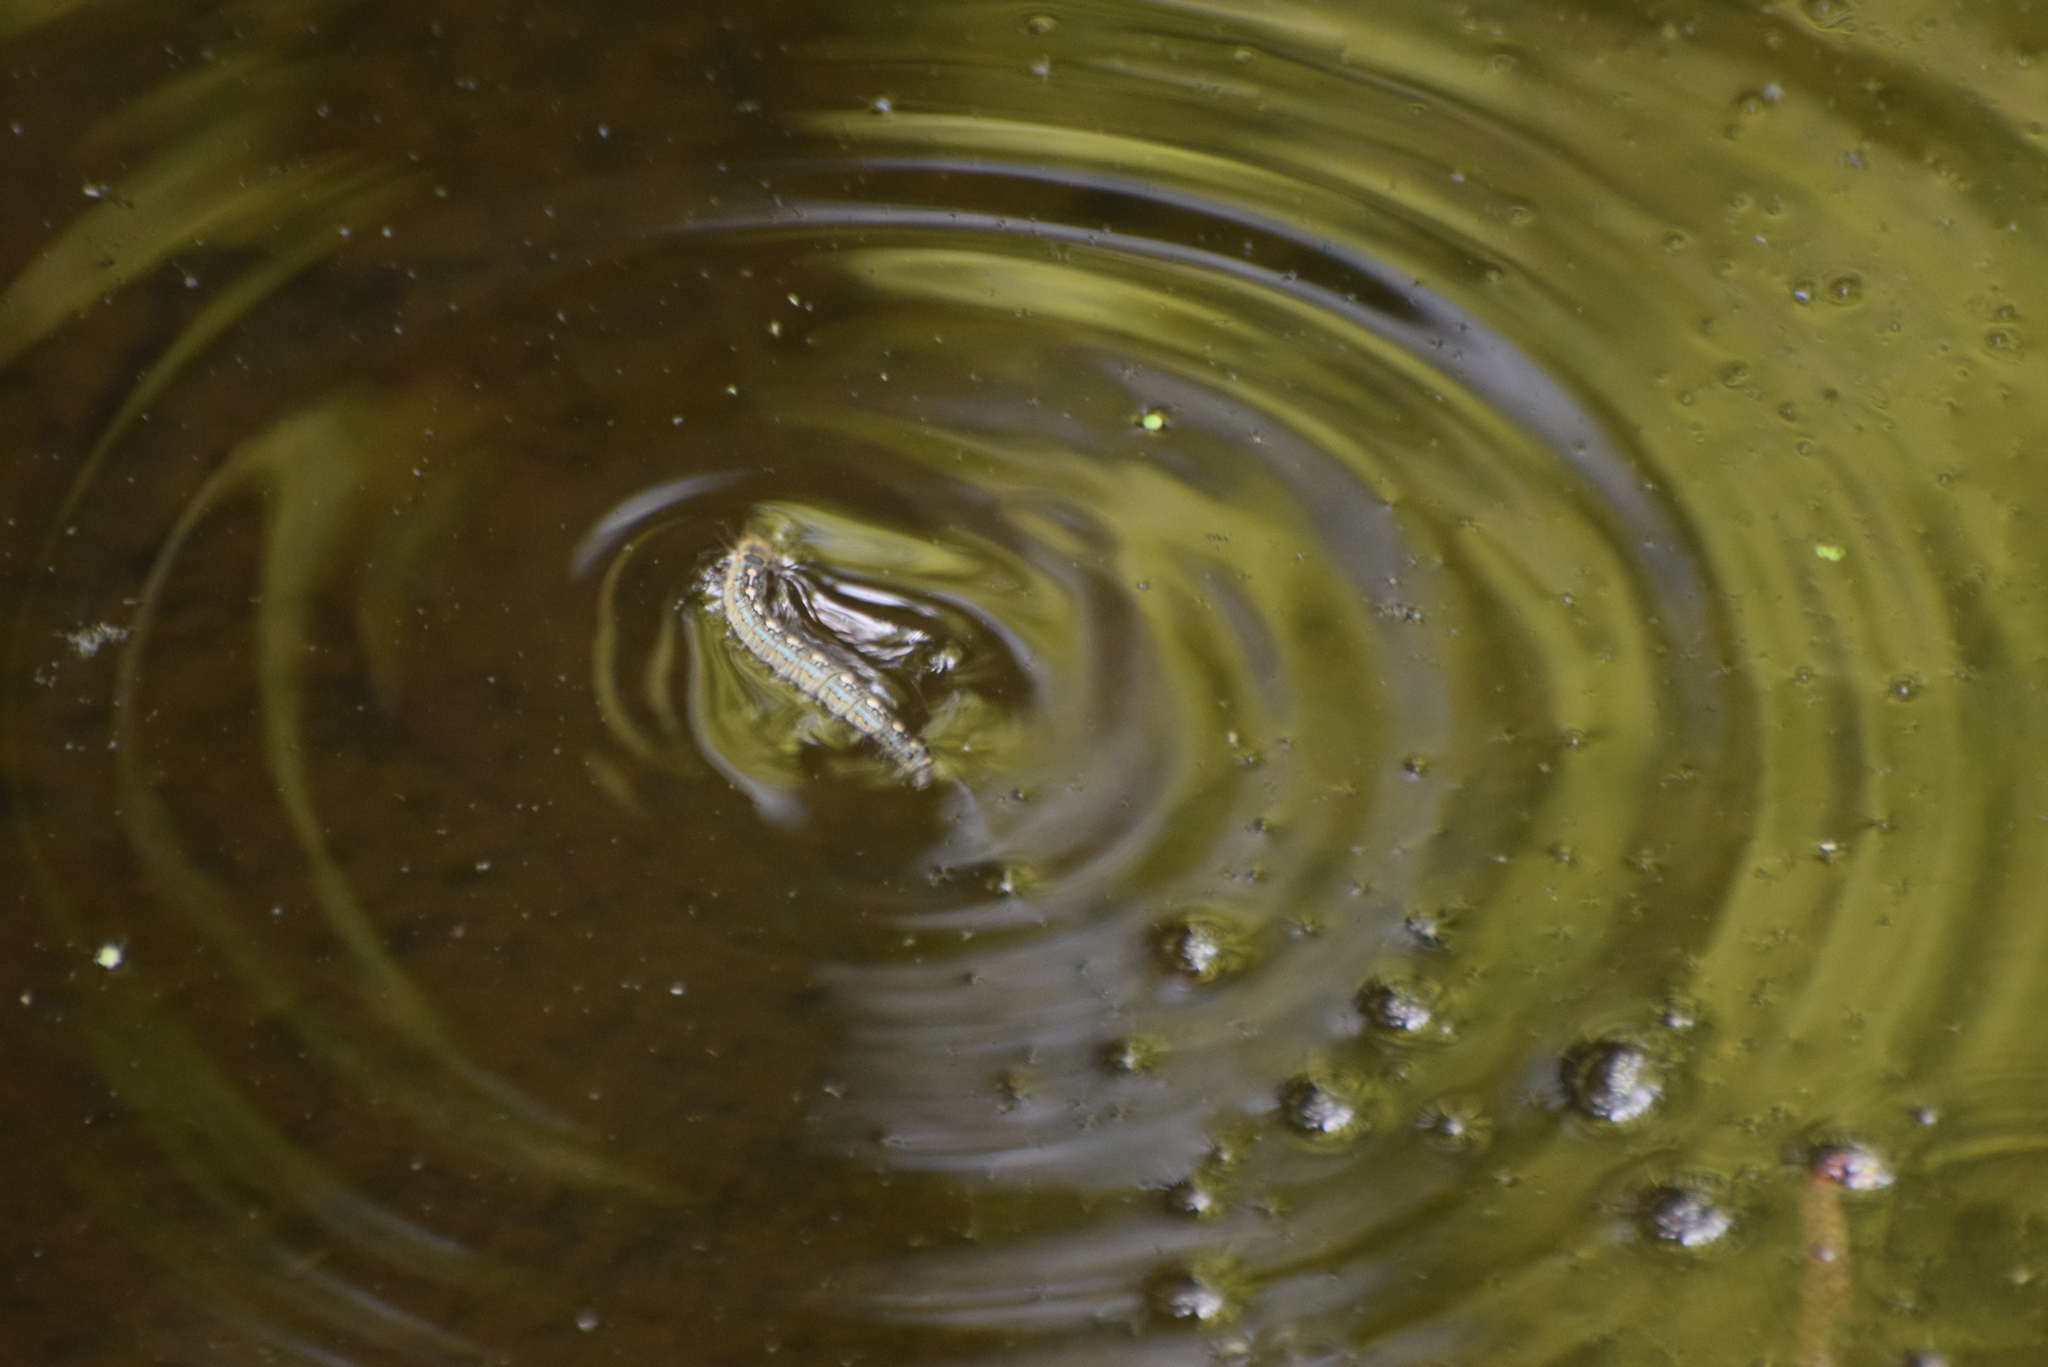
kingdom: Animalia
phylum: Arthropoda
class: Insecta
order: Lepidoptera
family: Lasiocampidae
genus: Malacosoma
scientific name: Malacosoma disstria
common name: Forest tent caterpillar
